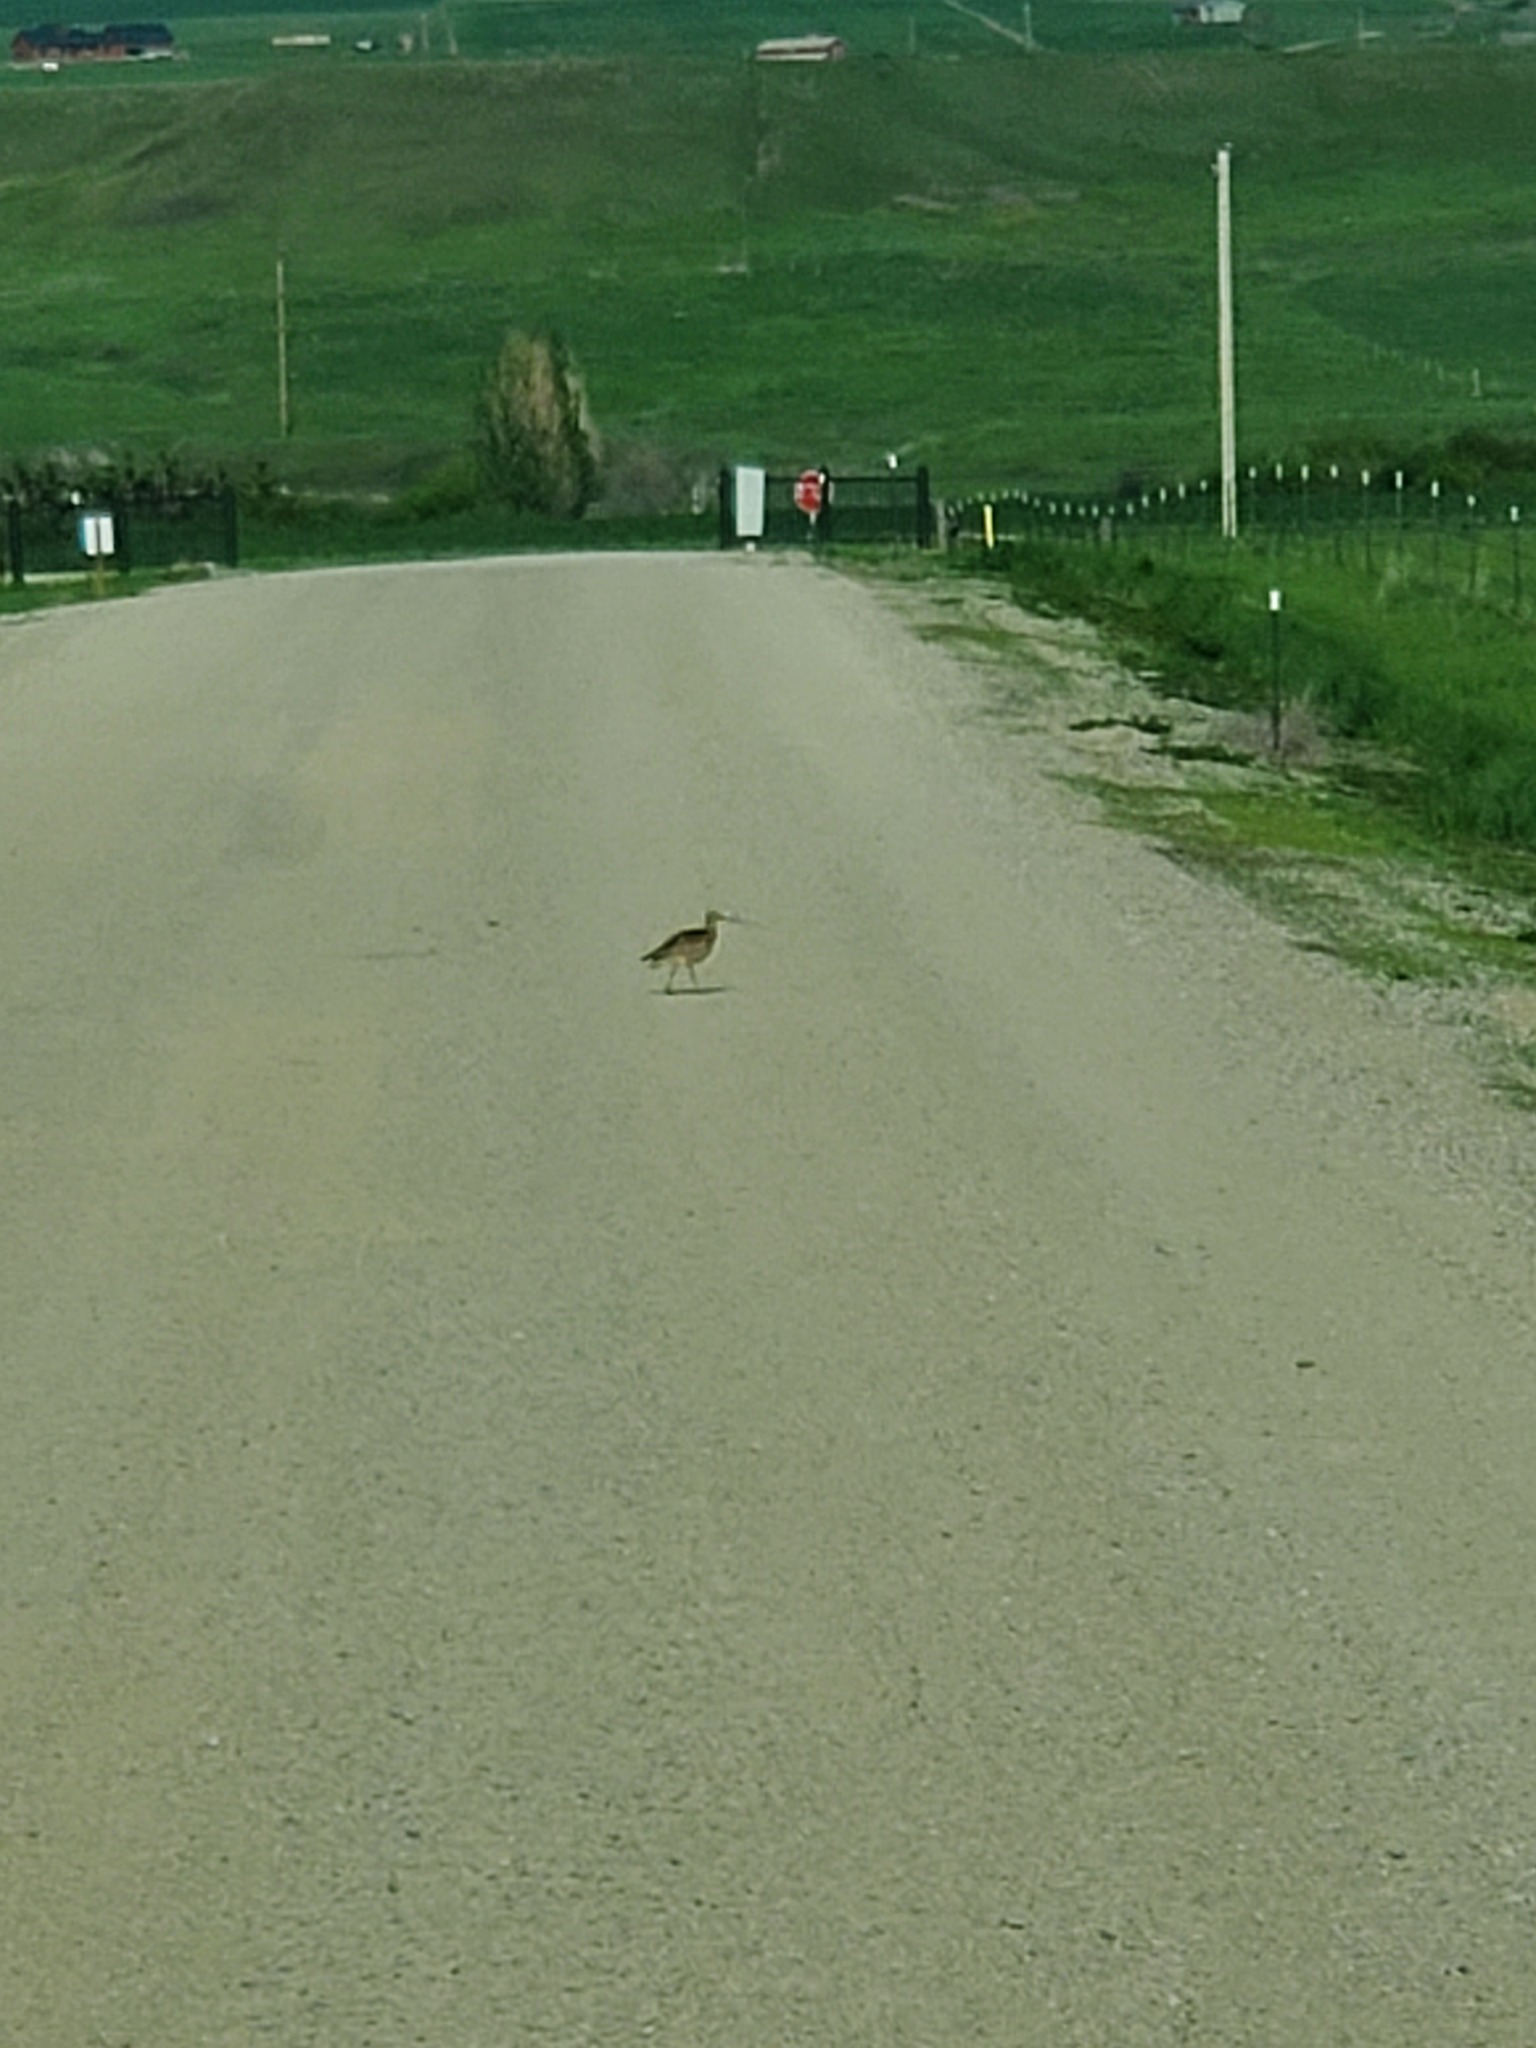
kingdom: Animalia
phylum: Chordata
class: Aves
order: Charadriiformes
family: Scolopacidae
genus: Numenius
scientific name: Numenius americanus
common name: Long-billed curlew
